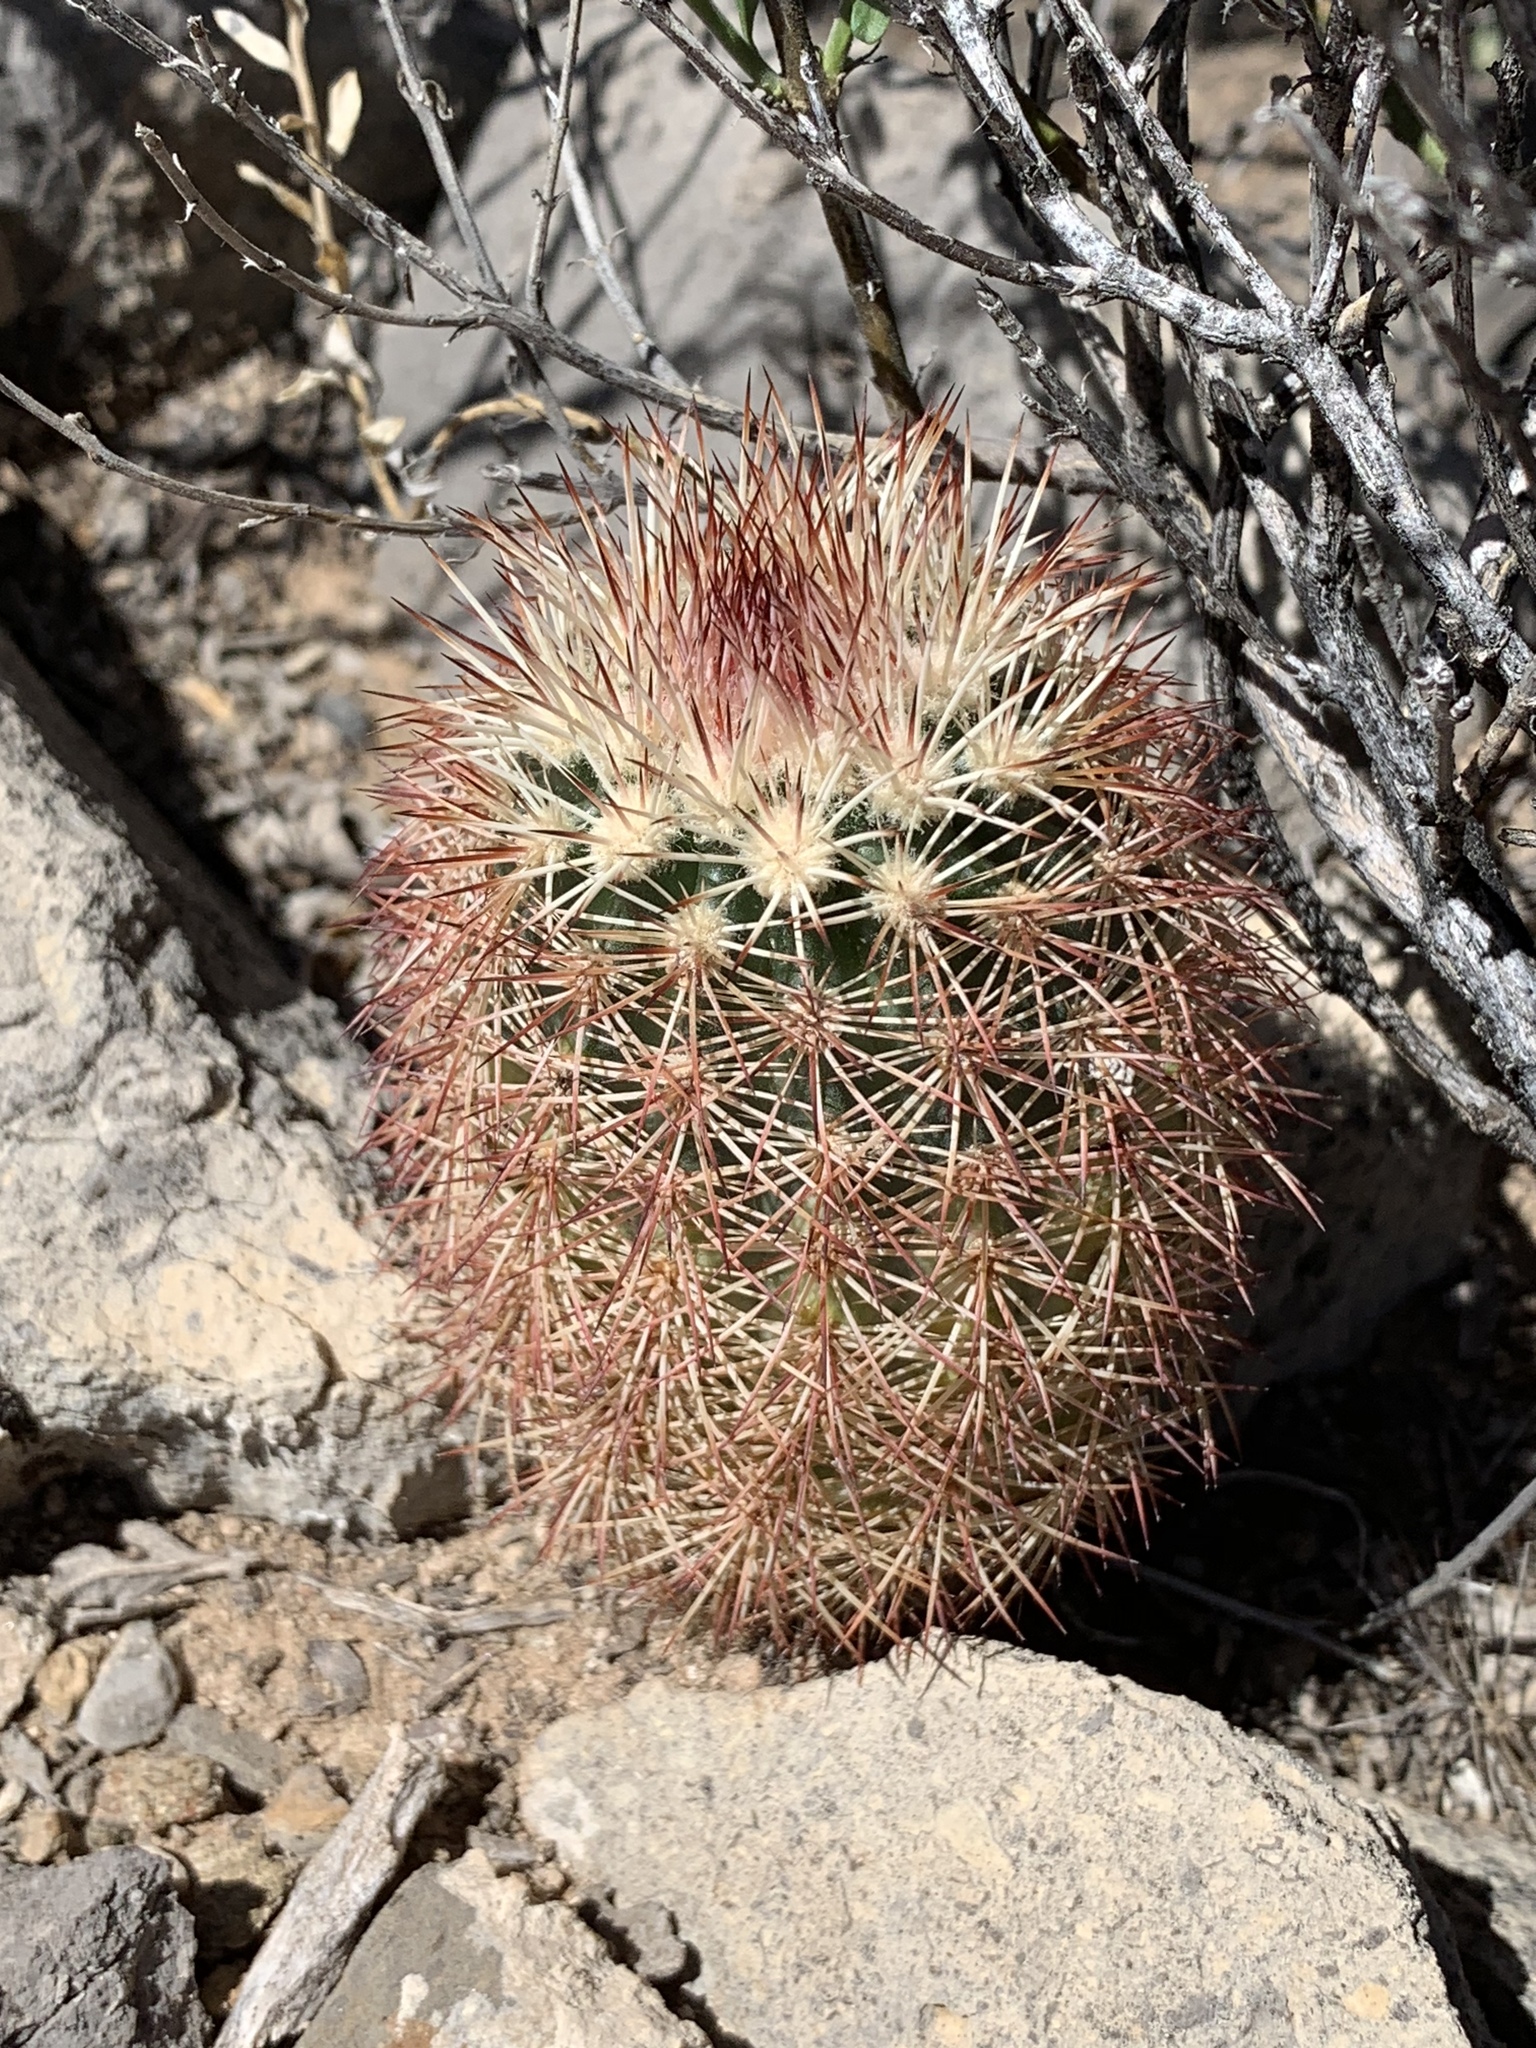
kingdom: Plantae
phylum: Tracheophyta
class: Magnoliopsida
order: Caryophyllales
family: Cactaceae
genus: Echinocereus
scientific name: Echinocereus dasyacanthus
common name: Spiny hedgehog cactus
